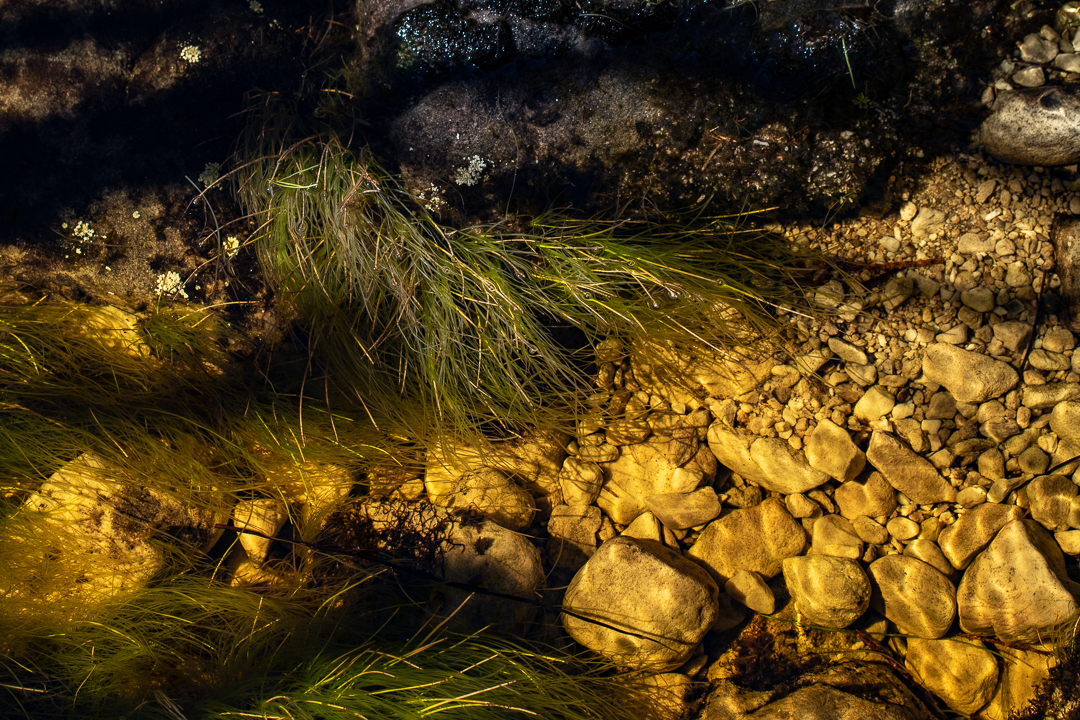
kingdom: Plantae
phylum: Tracheophyta
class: Liliopsida
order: Poales
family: Cyperaceae
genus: Isolepis
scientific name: Isolepis digitata
